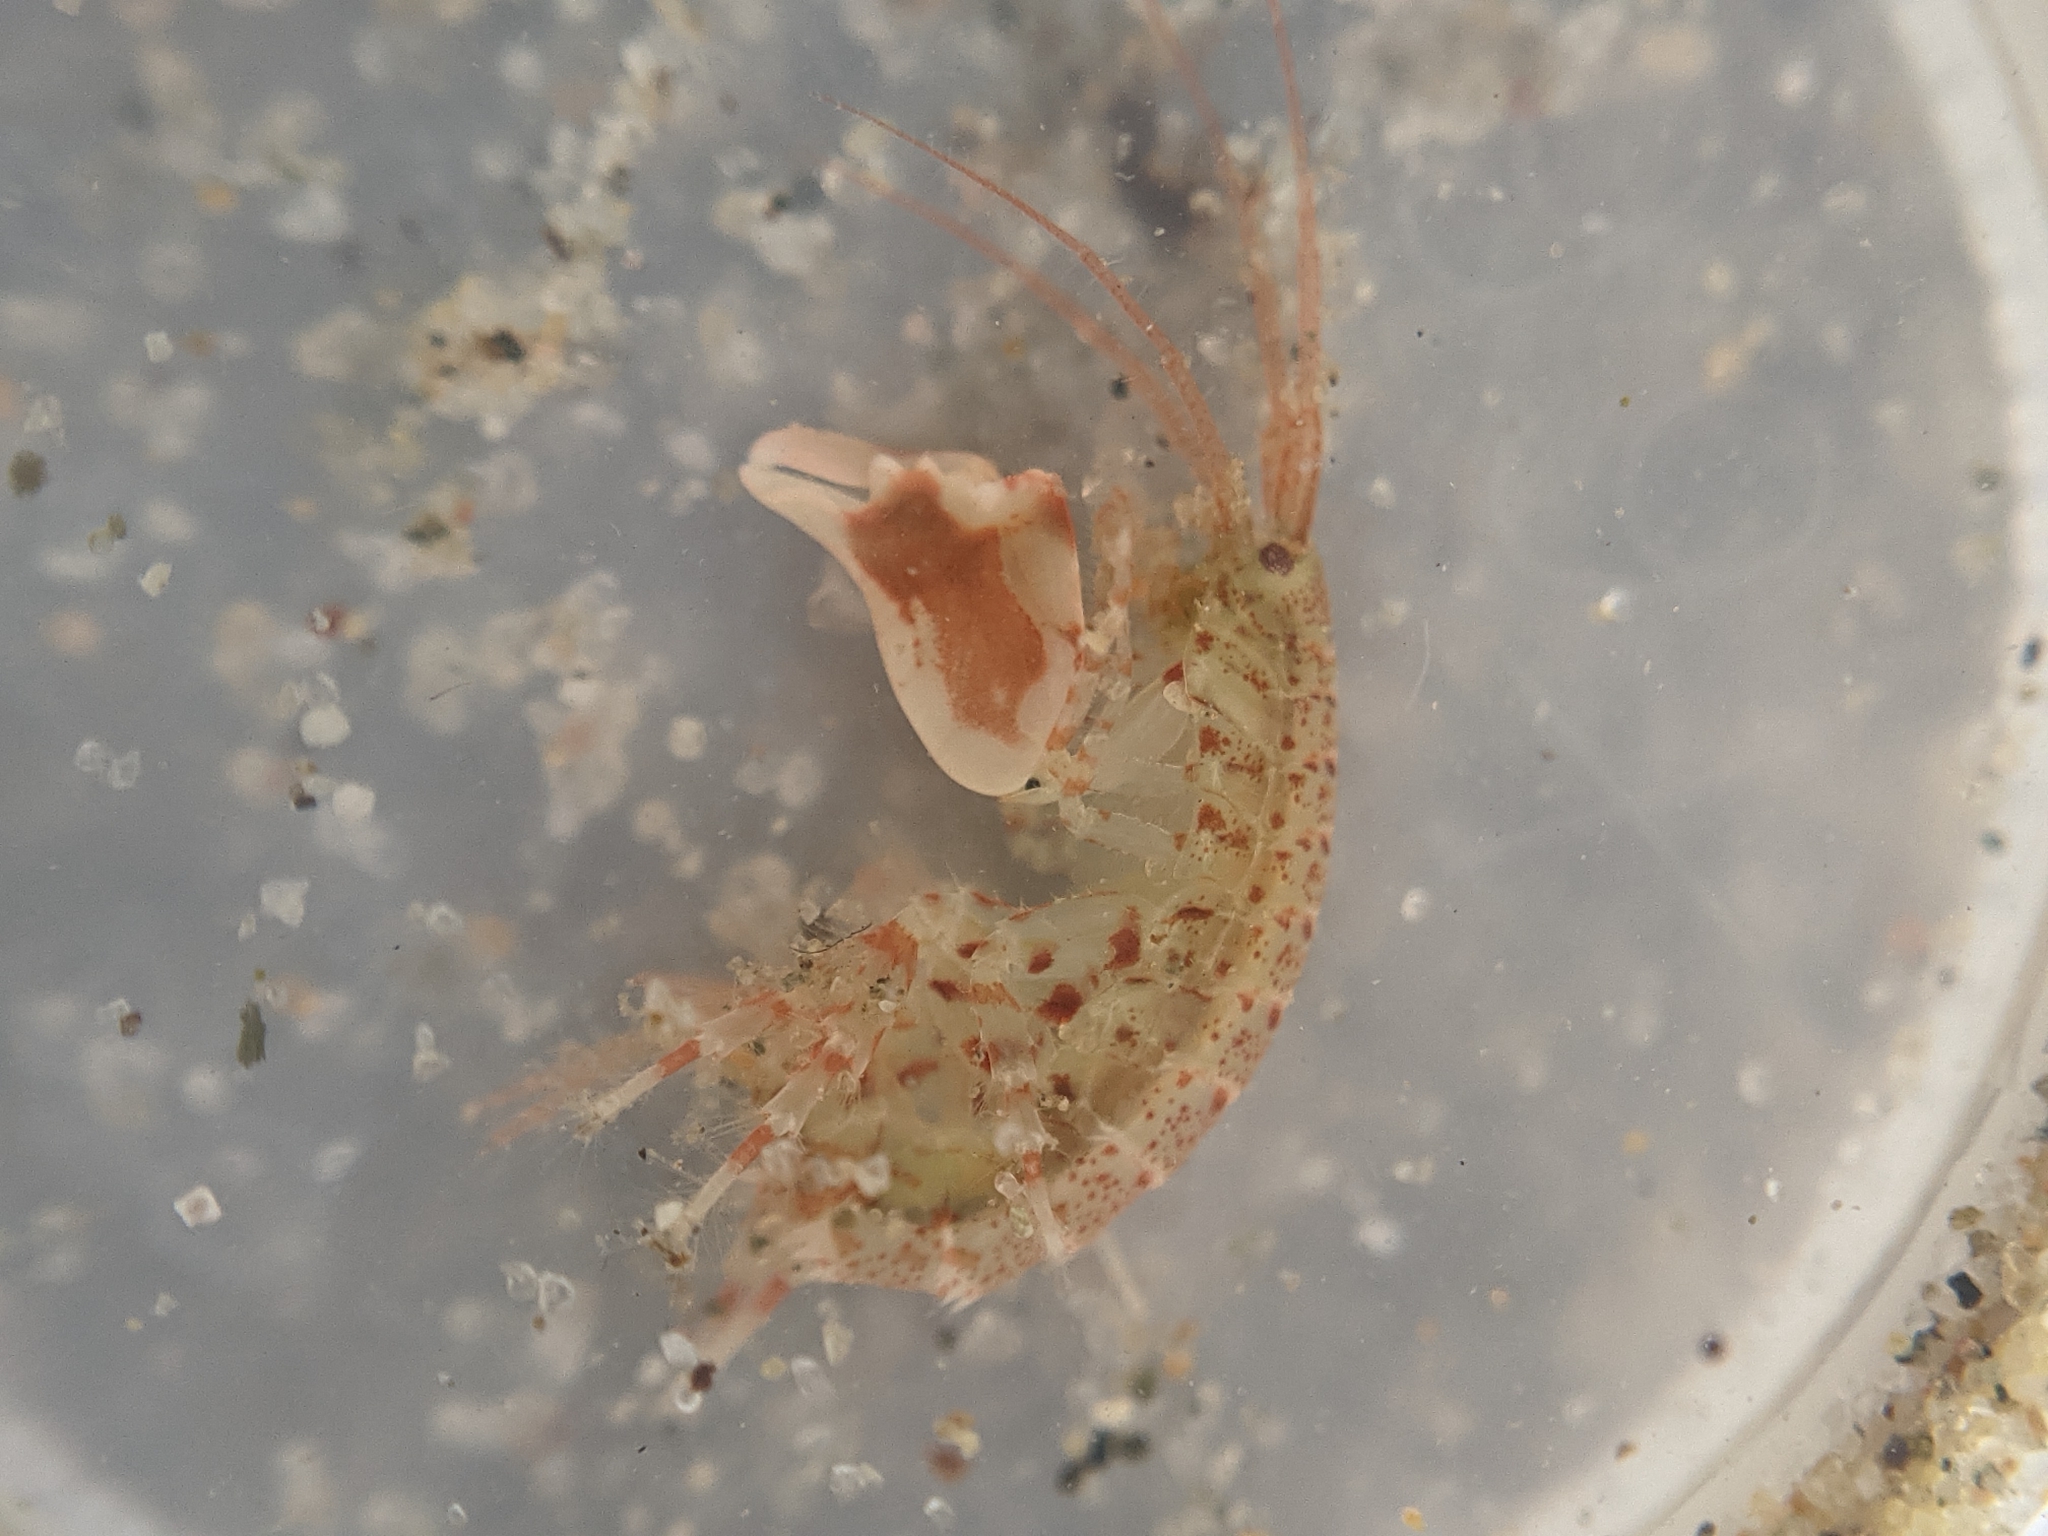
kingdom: Animalia
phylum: Arthropoda
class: Malacostraca
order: Amphipoda
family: Melitidae
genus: Dulichiella
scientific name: Dulichiella spinosa
